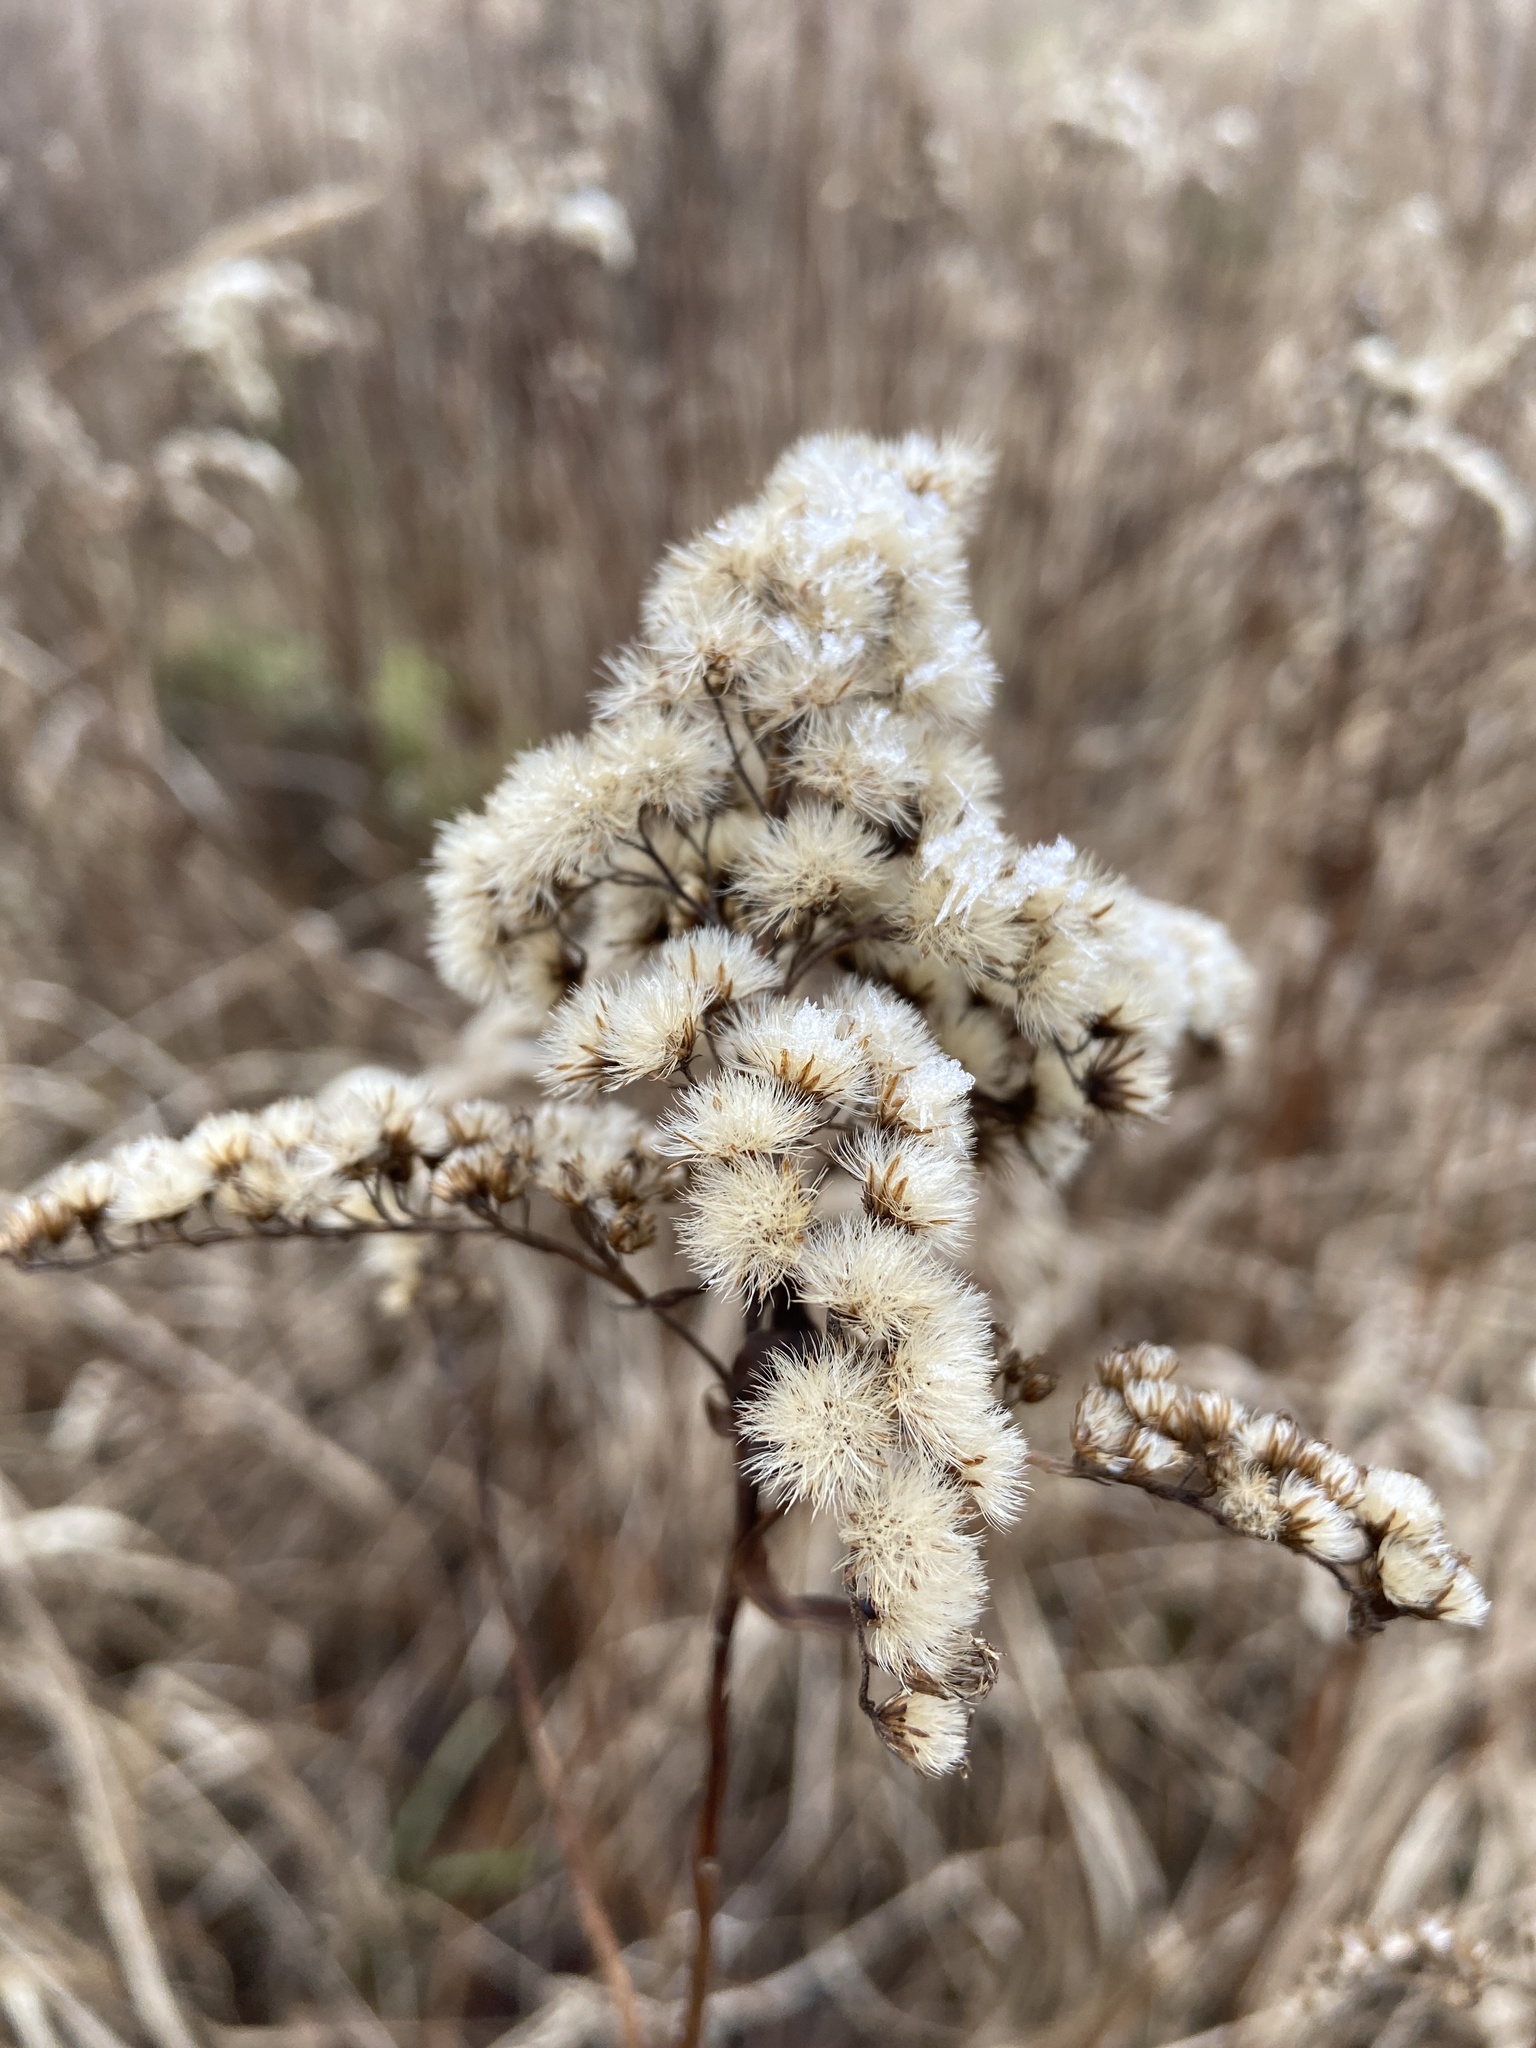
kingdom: Plantae
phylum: Tracheophyta
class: Magnoliopsida
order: Asterales
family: Asteraceae
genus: Solidago
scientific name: Solidago gigantea
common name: Giant goldenrod
